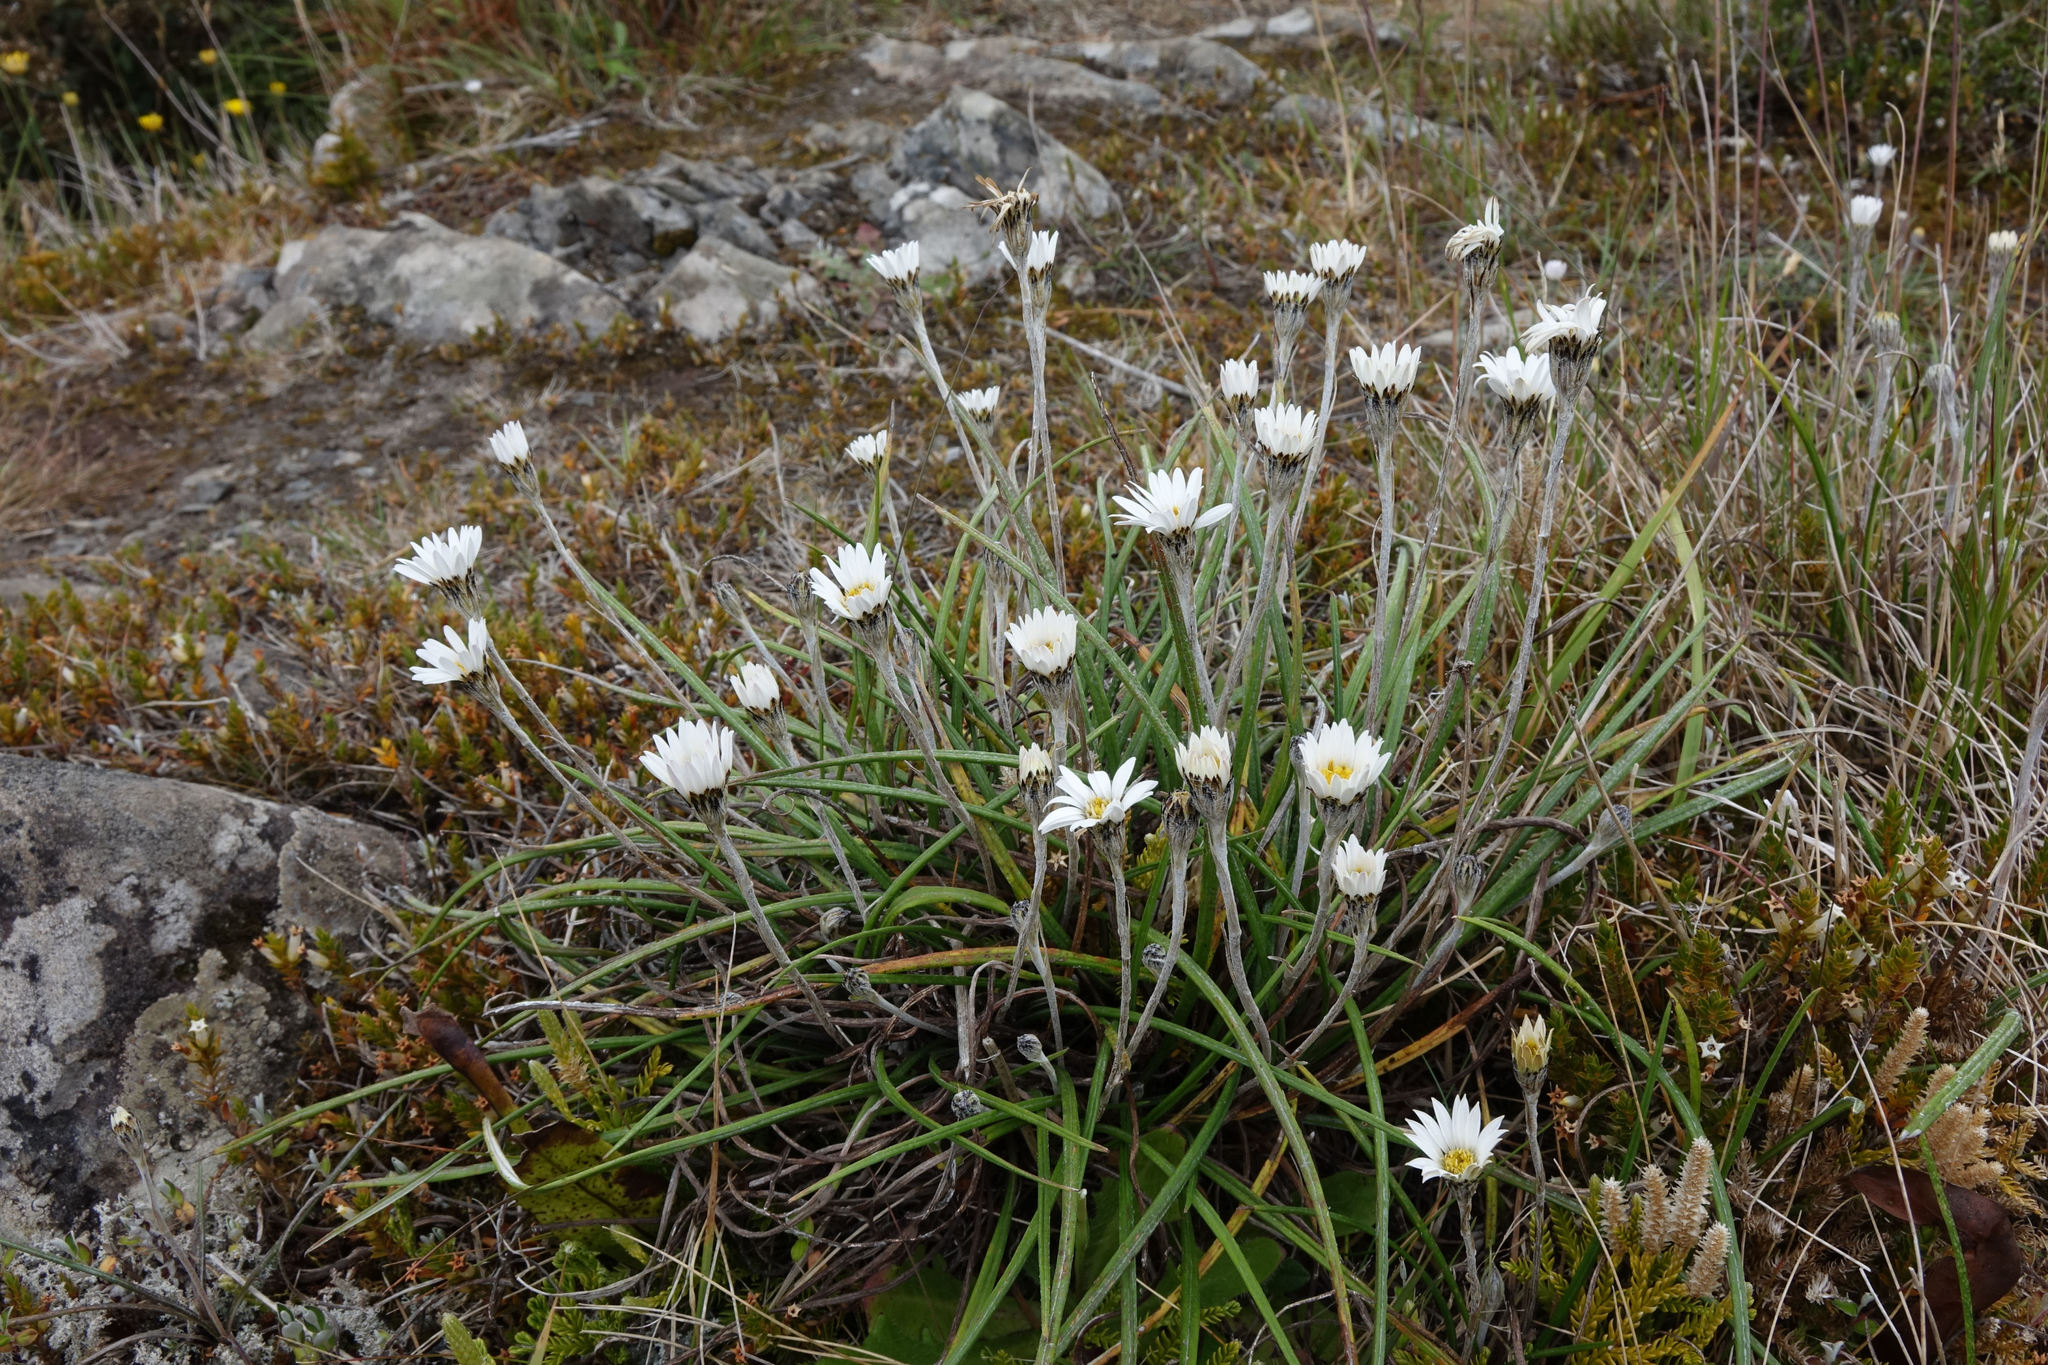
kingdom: Plantae
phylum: Tracheophyta
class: Magnoliopsida
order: Asterales
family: Asteraceae
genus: Celmisia
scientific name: Celmisia gracilenta
